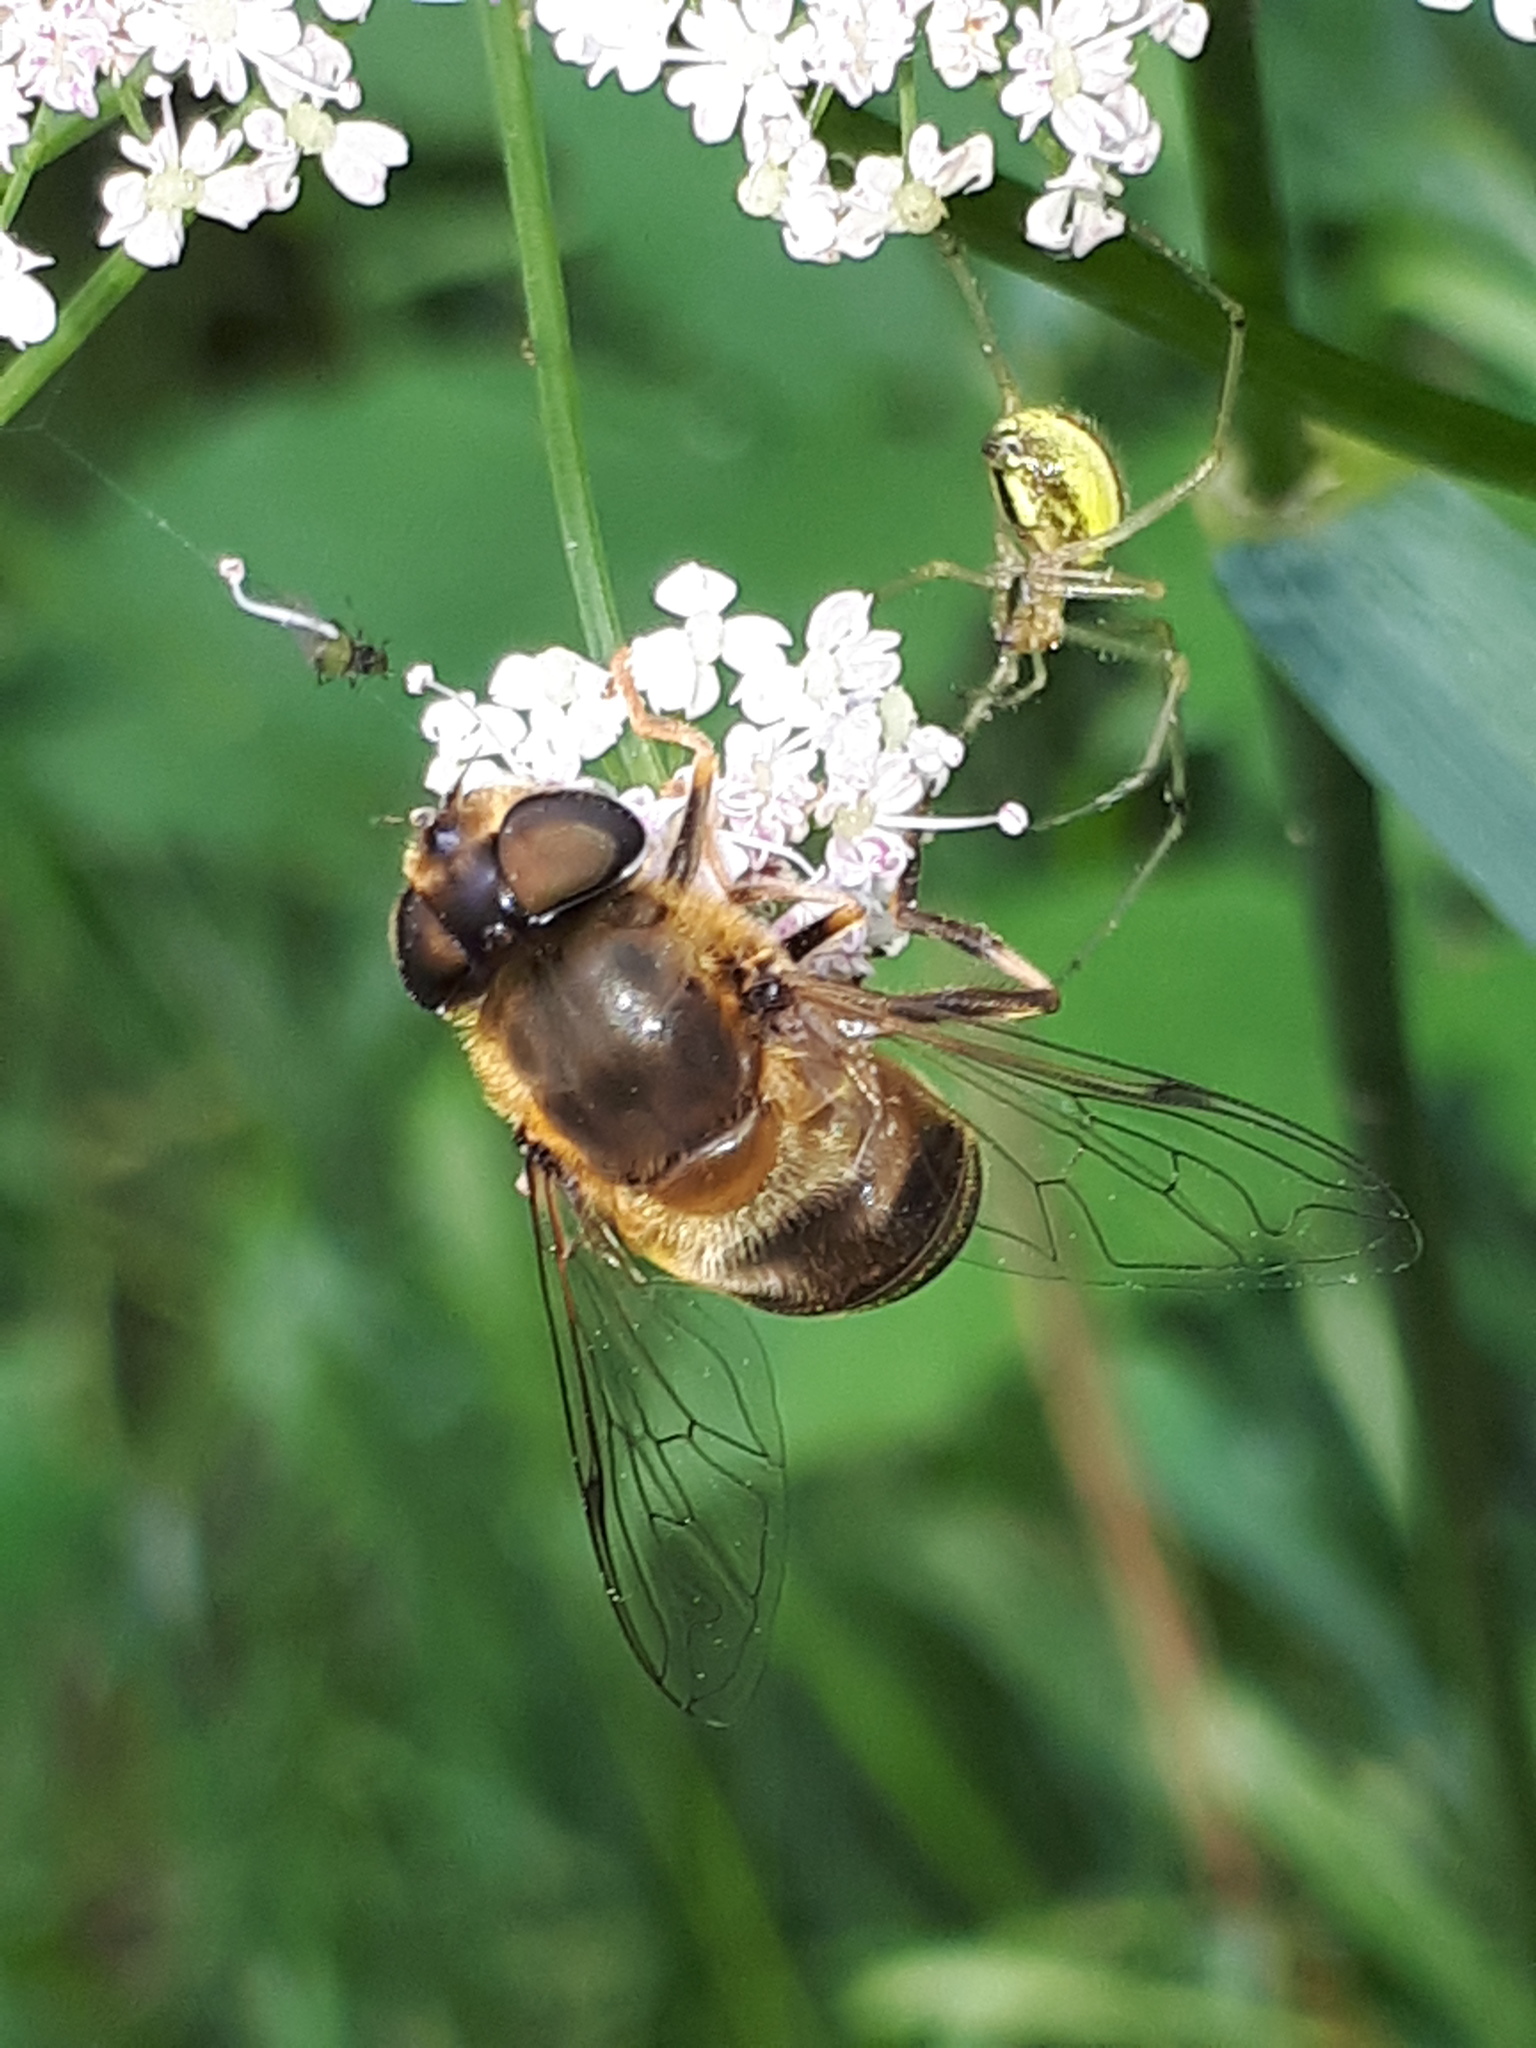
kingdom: Animalia
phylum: Arthropoda
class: Insecta
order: Diptera
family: Syrphidae
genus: Eristalis
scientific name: Eristalis pertinax
